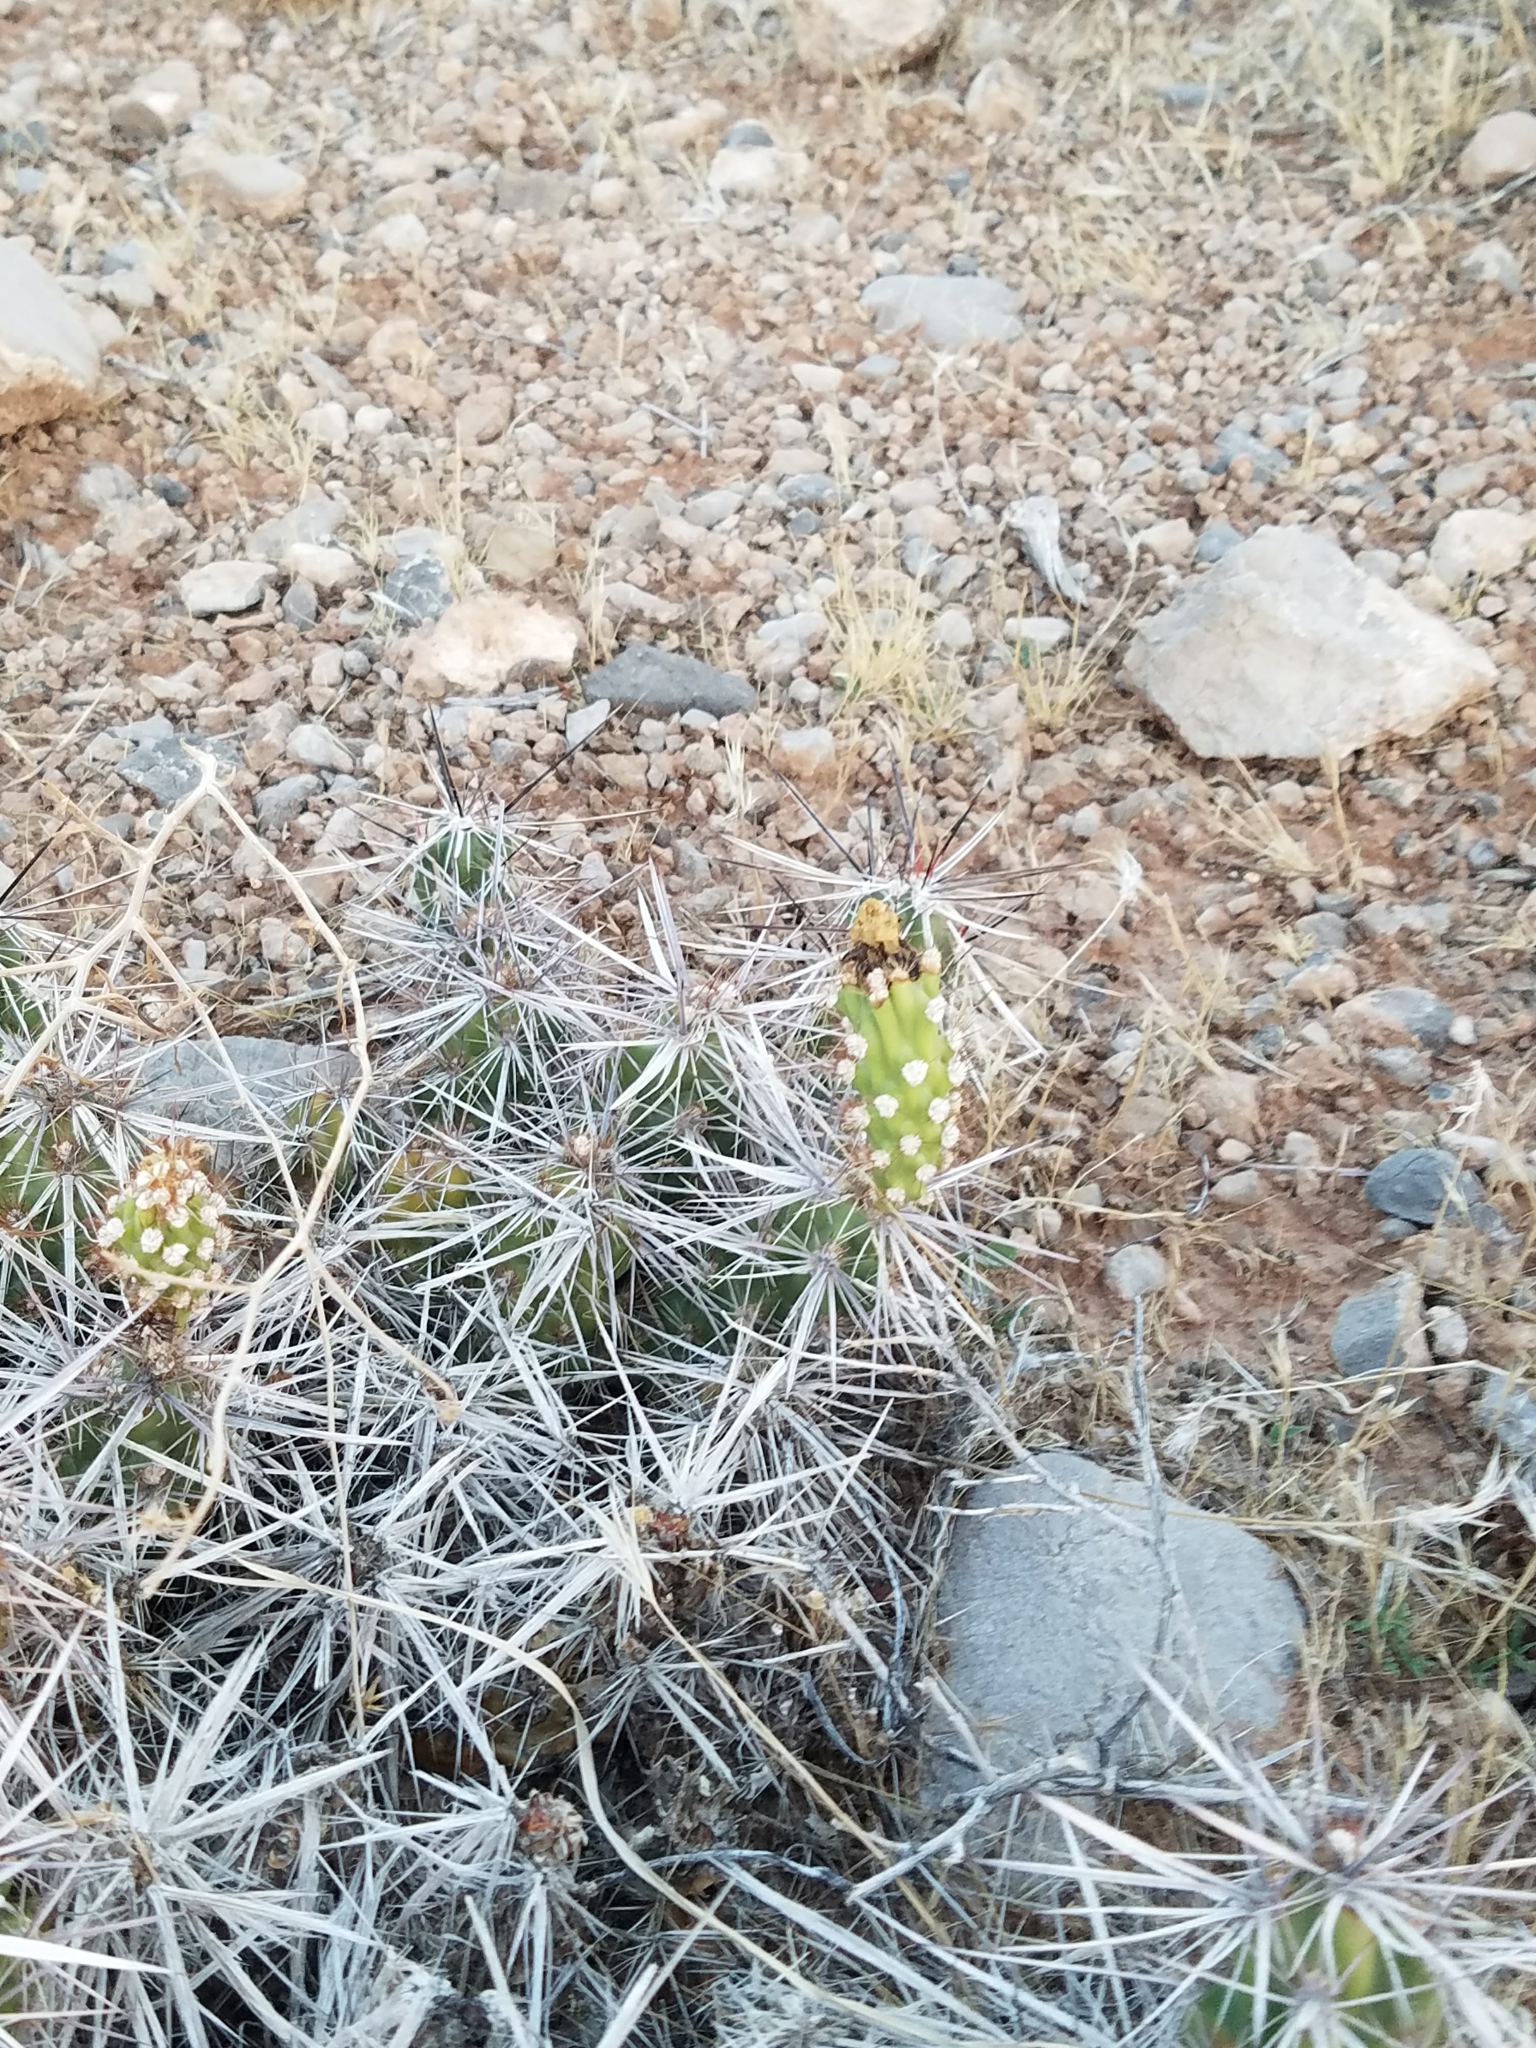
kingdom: Plantae
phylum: Tracheophyta
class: Magnoliopsida
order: Caryophyllales
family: Cactaceae
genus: Grusonia
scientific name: Grusonia parishiorum
